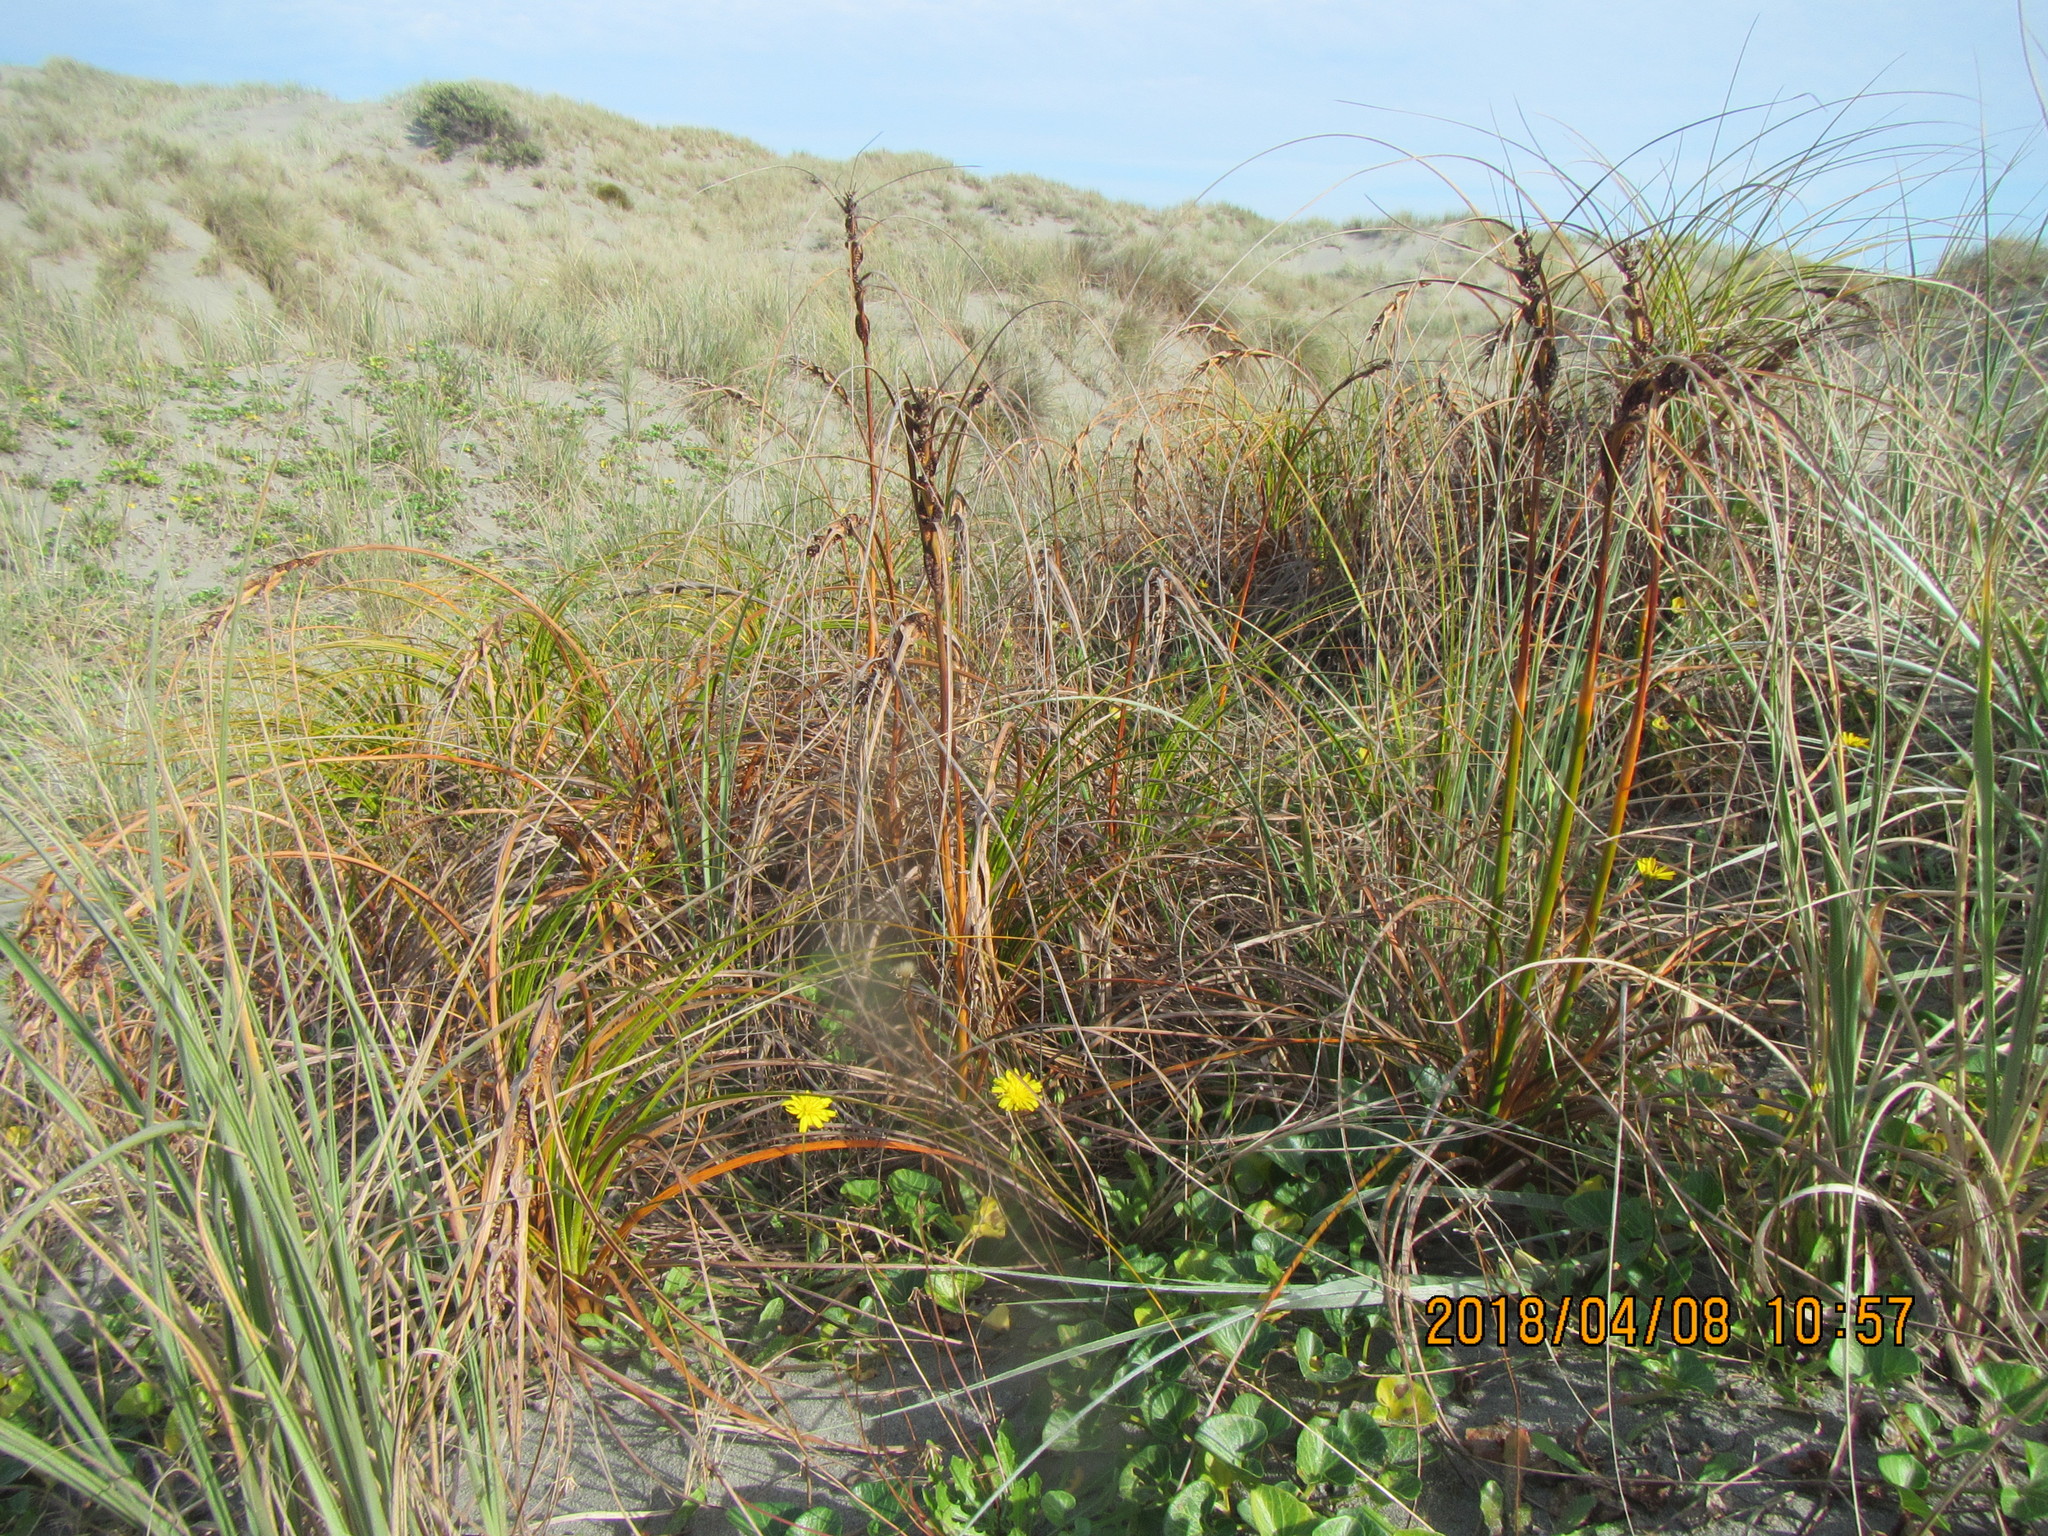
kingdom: Plantae
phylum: Tracheophyta
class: Liliopsida
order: Poales
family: Cyperaceae
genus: Ficinia
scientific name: Ficinia spiralis
